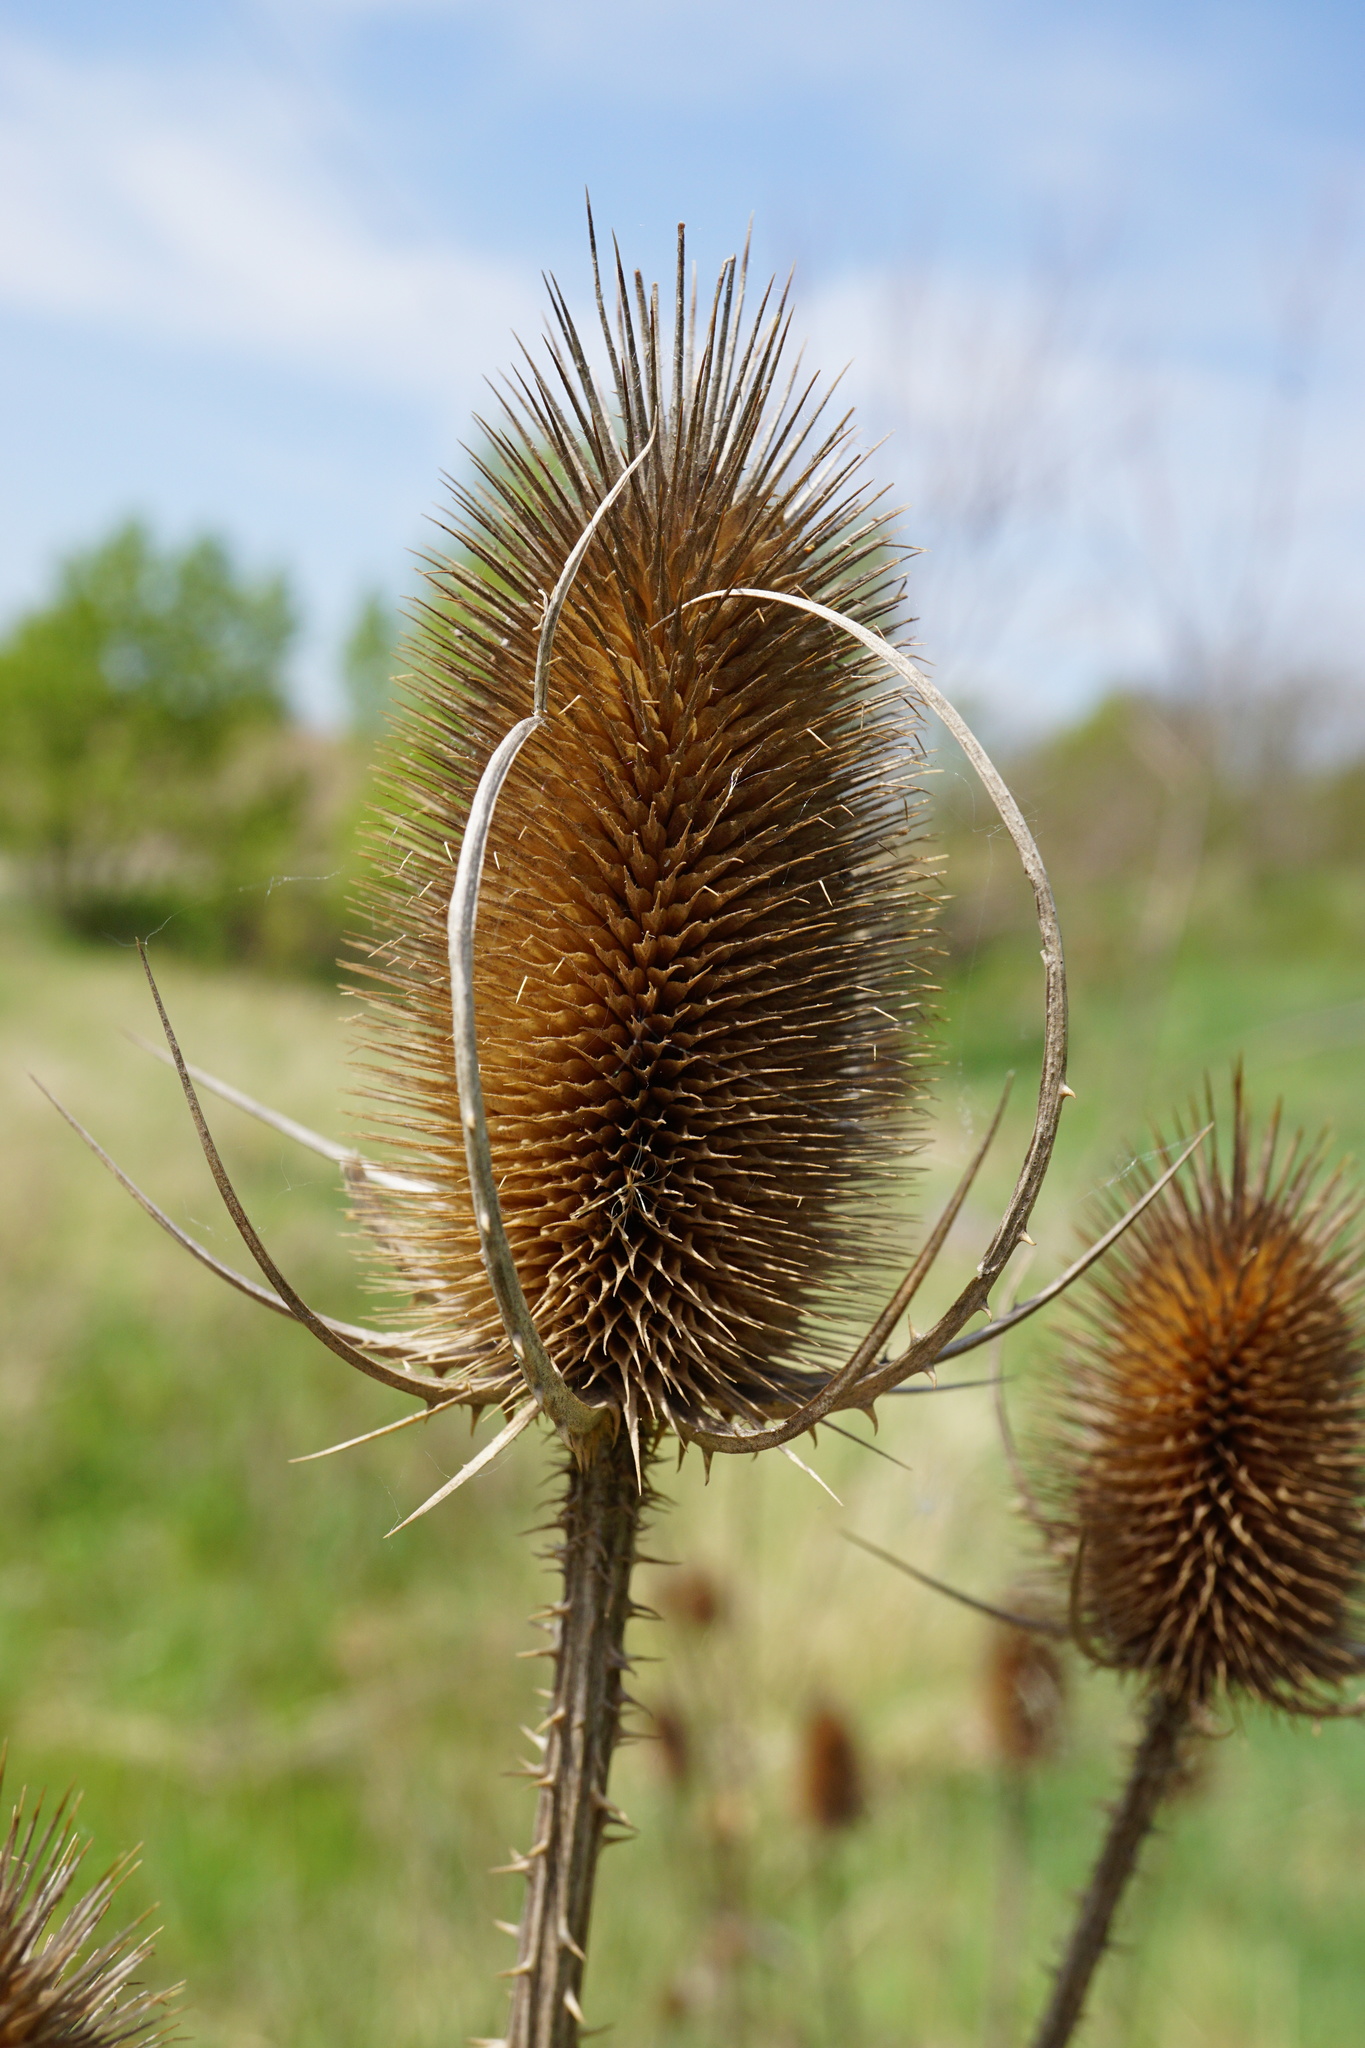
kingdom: Plantae
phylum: Tracheophyta
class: Magnoliopsida
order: Dipsacales
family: Caprifoliaceae
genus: Dipsacus
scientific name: Dipsacus fullonum
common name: Teasel
